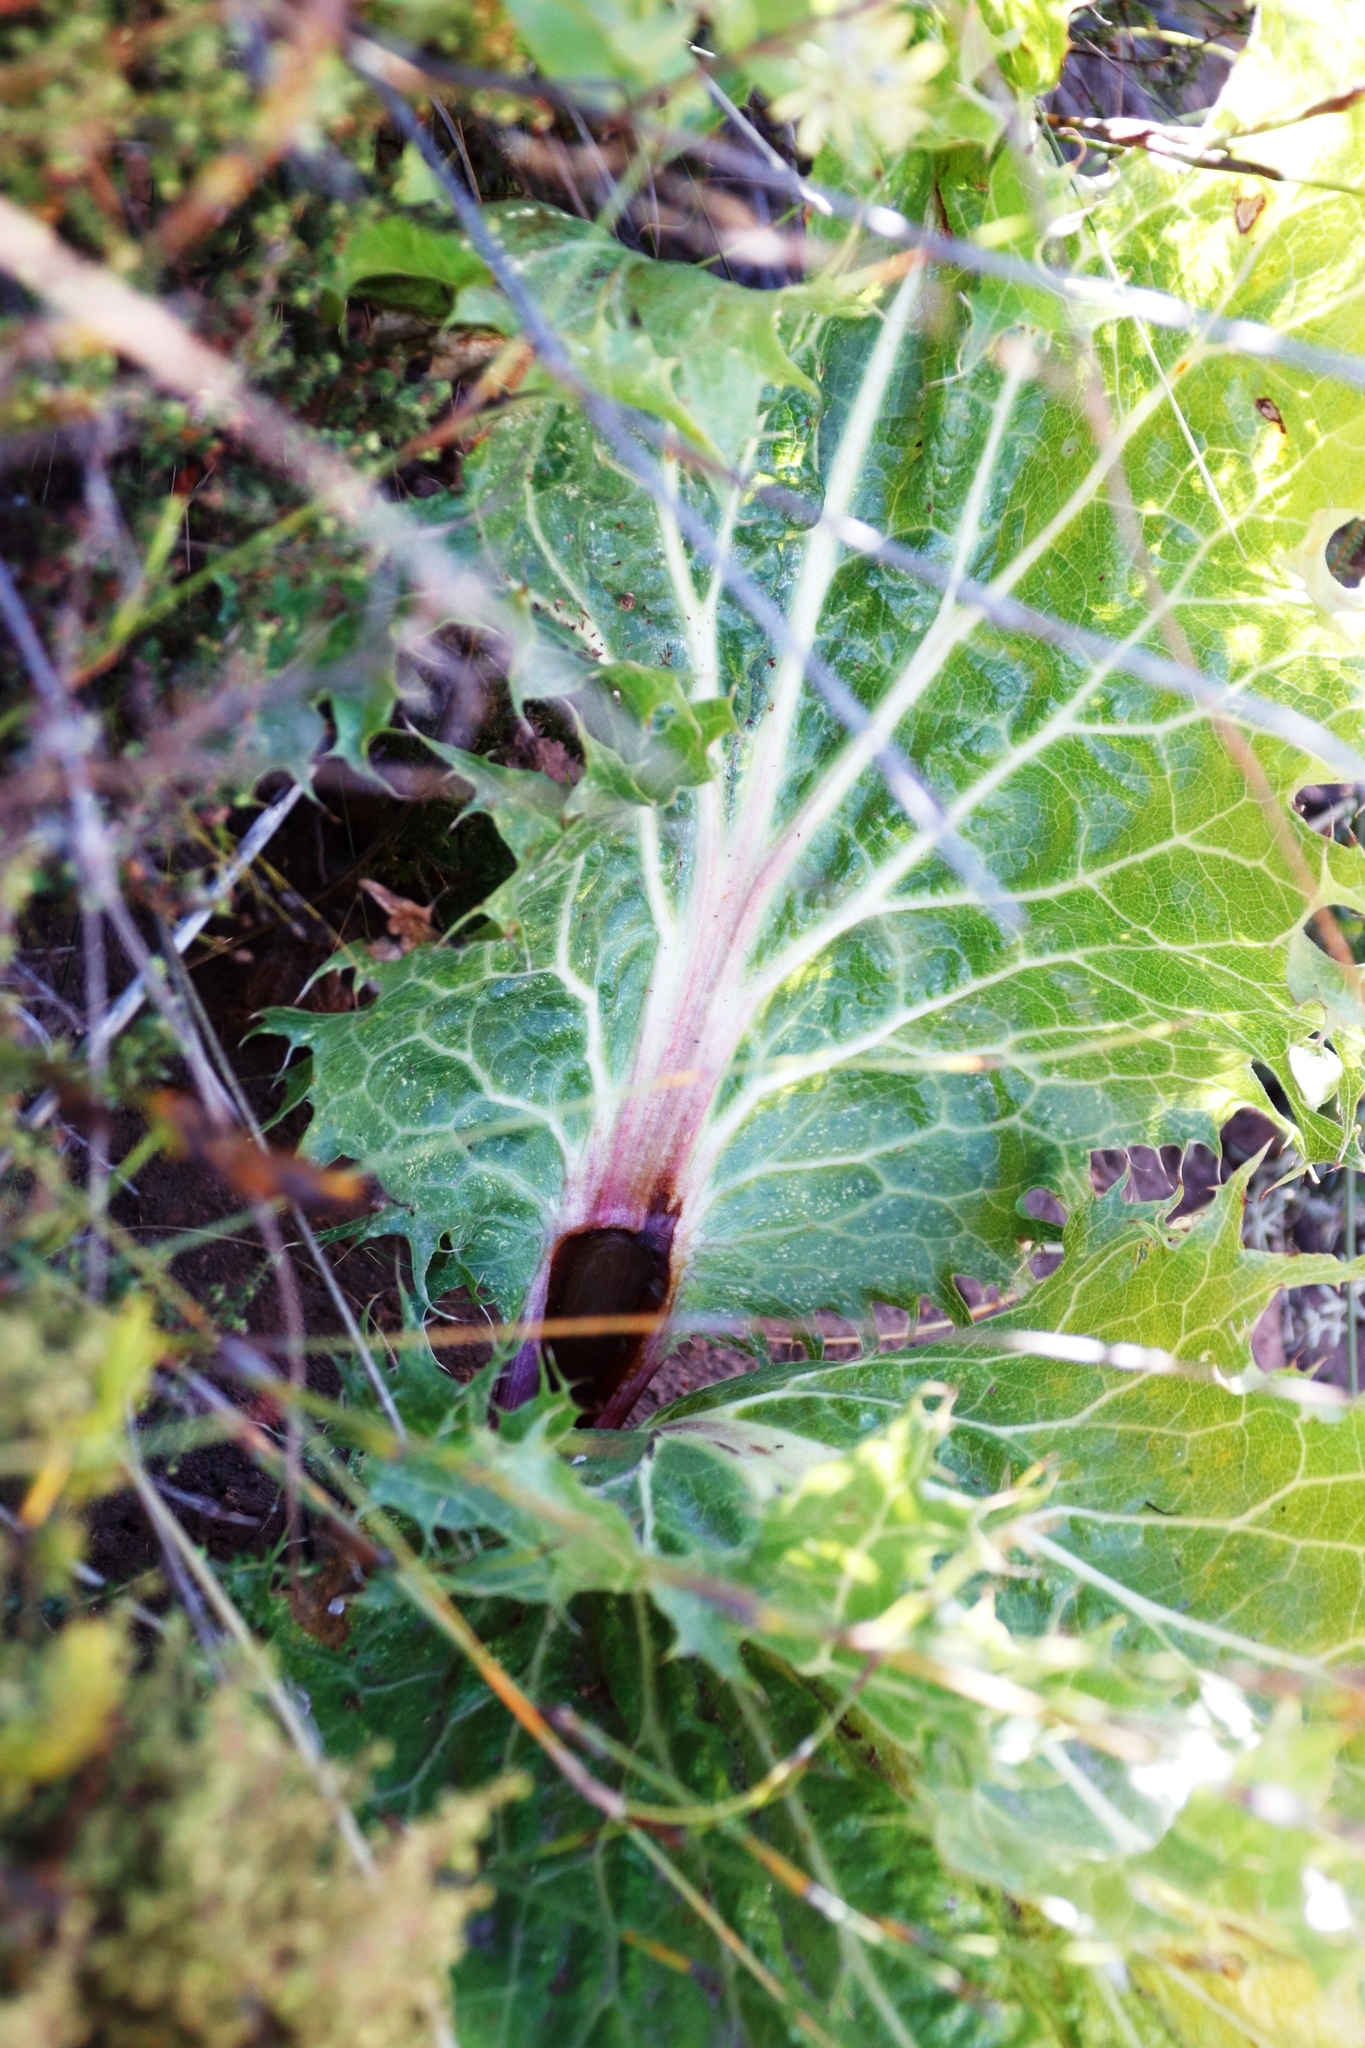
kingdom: Plantae
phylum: Tracheophyta
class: Magnoliopsida
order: Apiales
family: Apiaceae
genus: Lichtensteinia
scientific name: Lichtensteinia lacera
